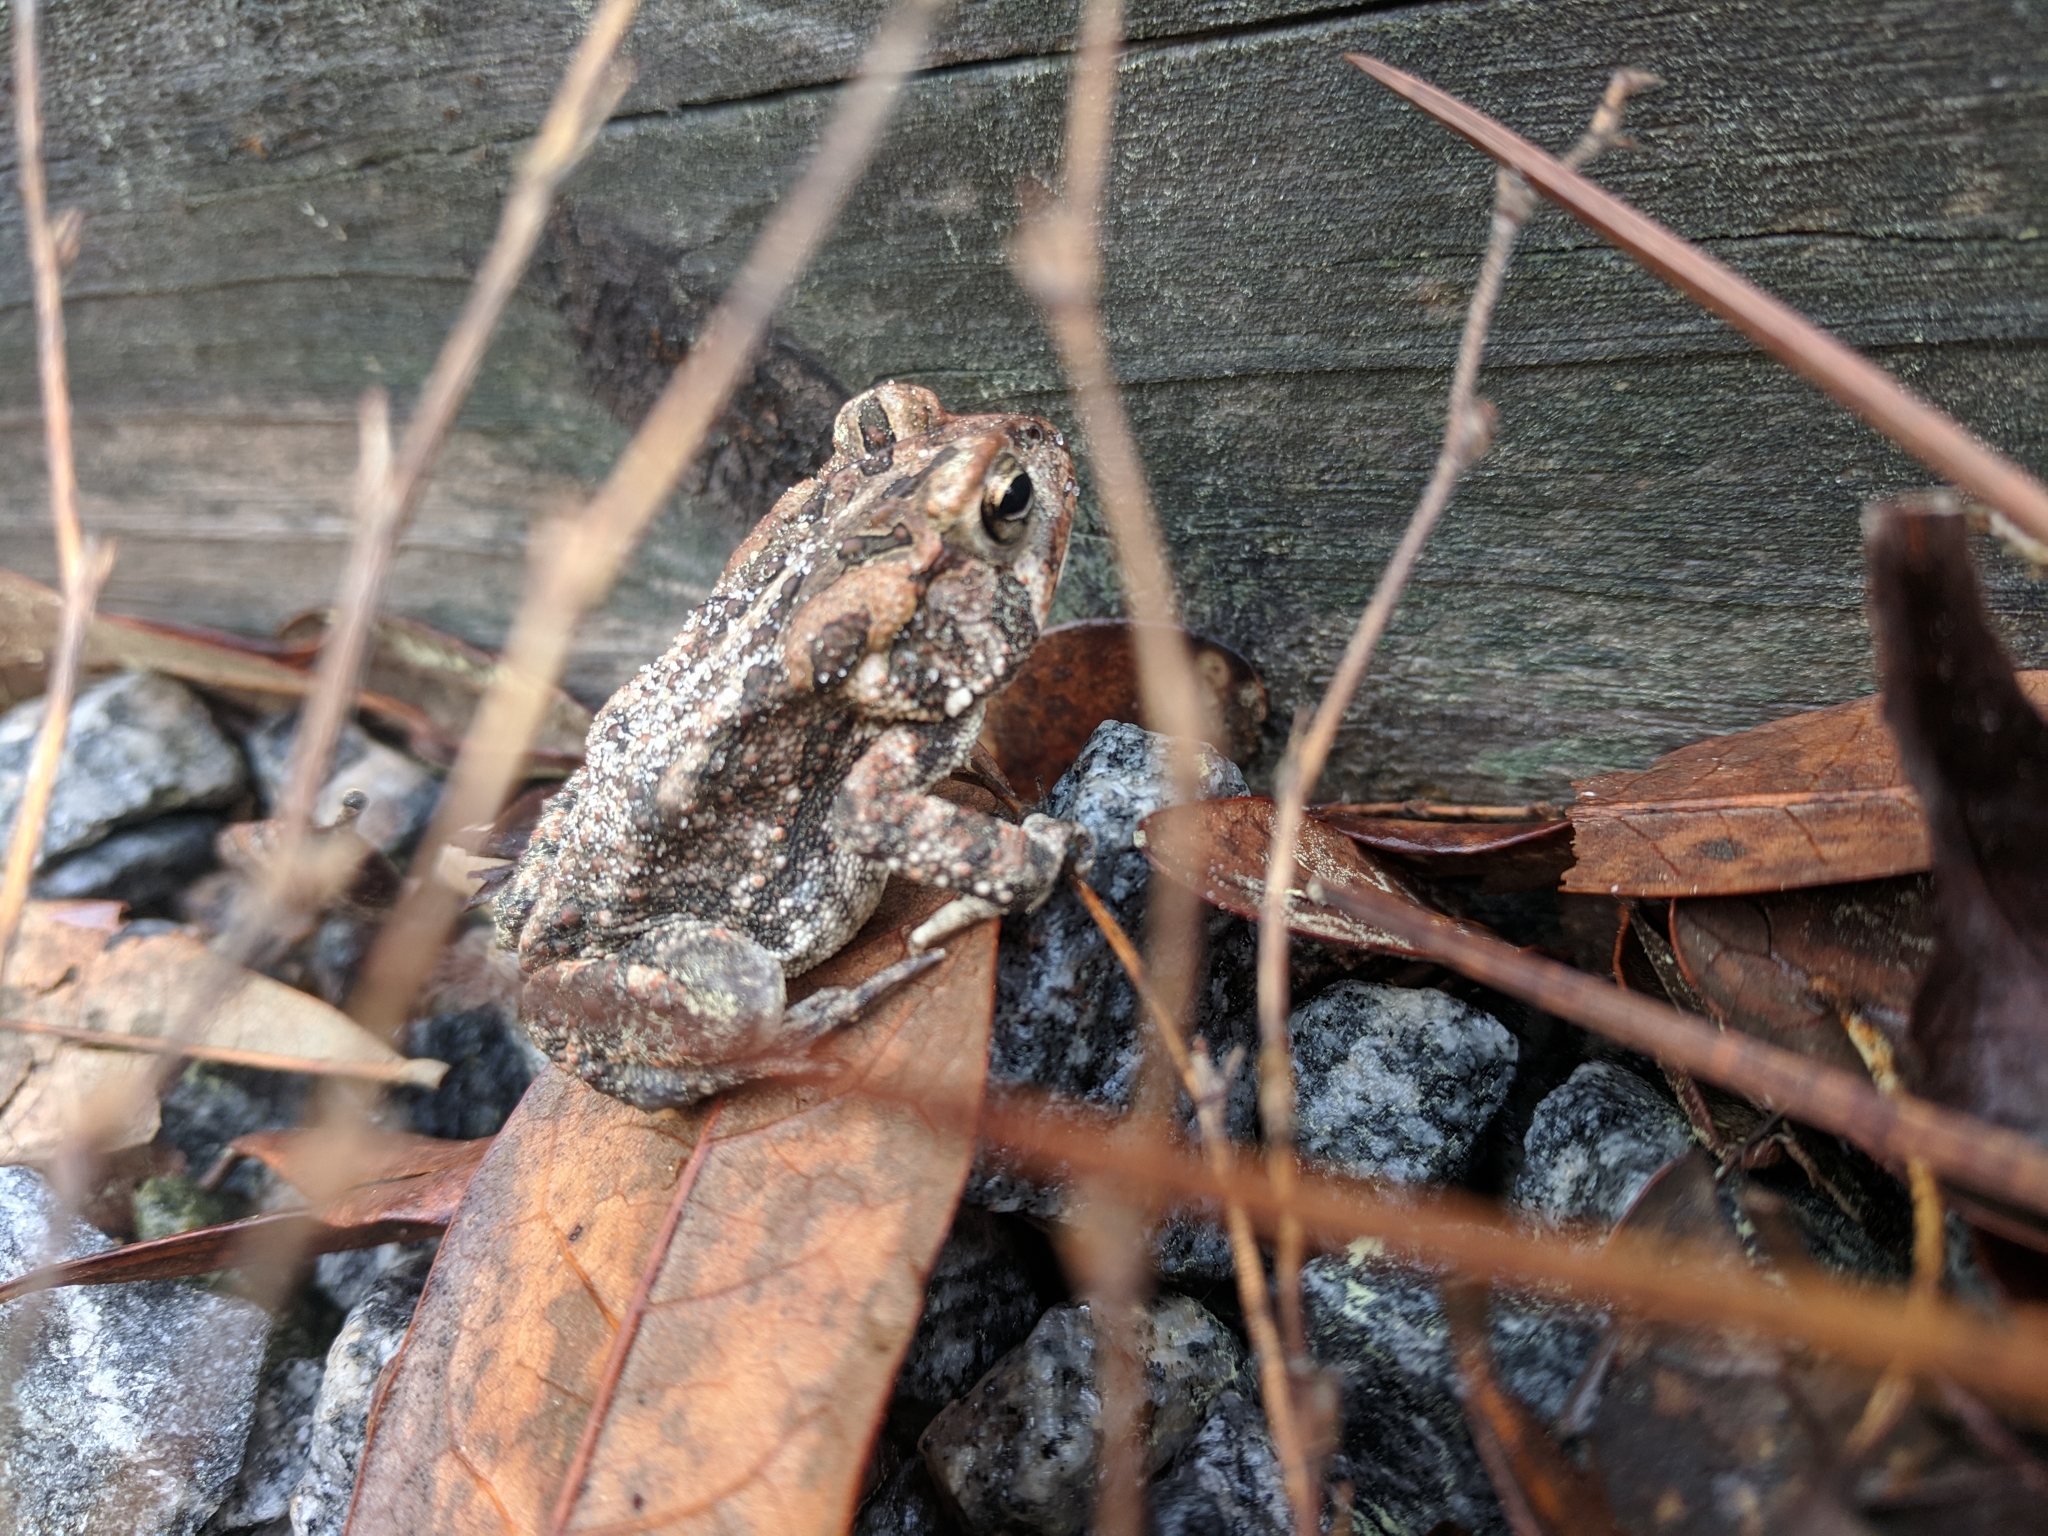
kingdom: Animalia
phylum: Chordata
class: Amphibia
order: Anura
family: Bufonidae
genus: Anaxyrus
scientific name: Anaxyrus terrestris
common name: Southern toad
